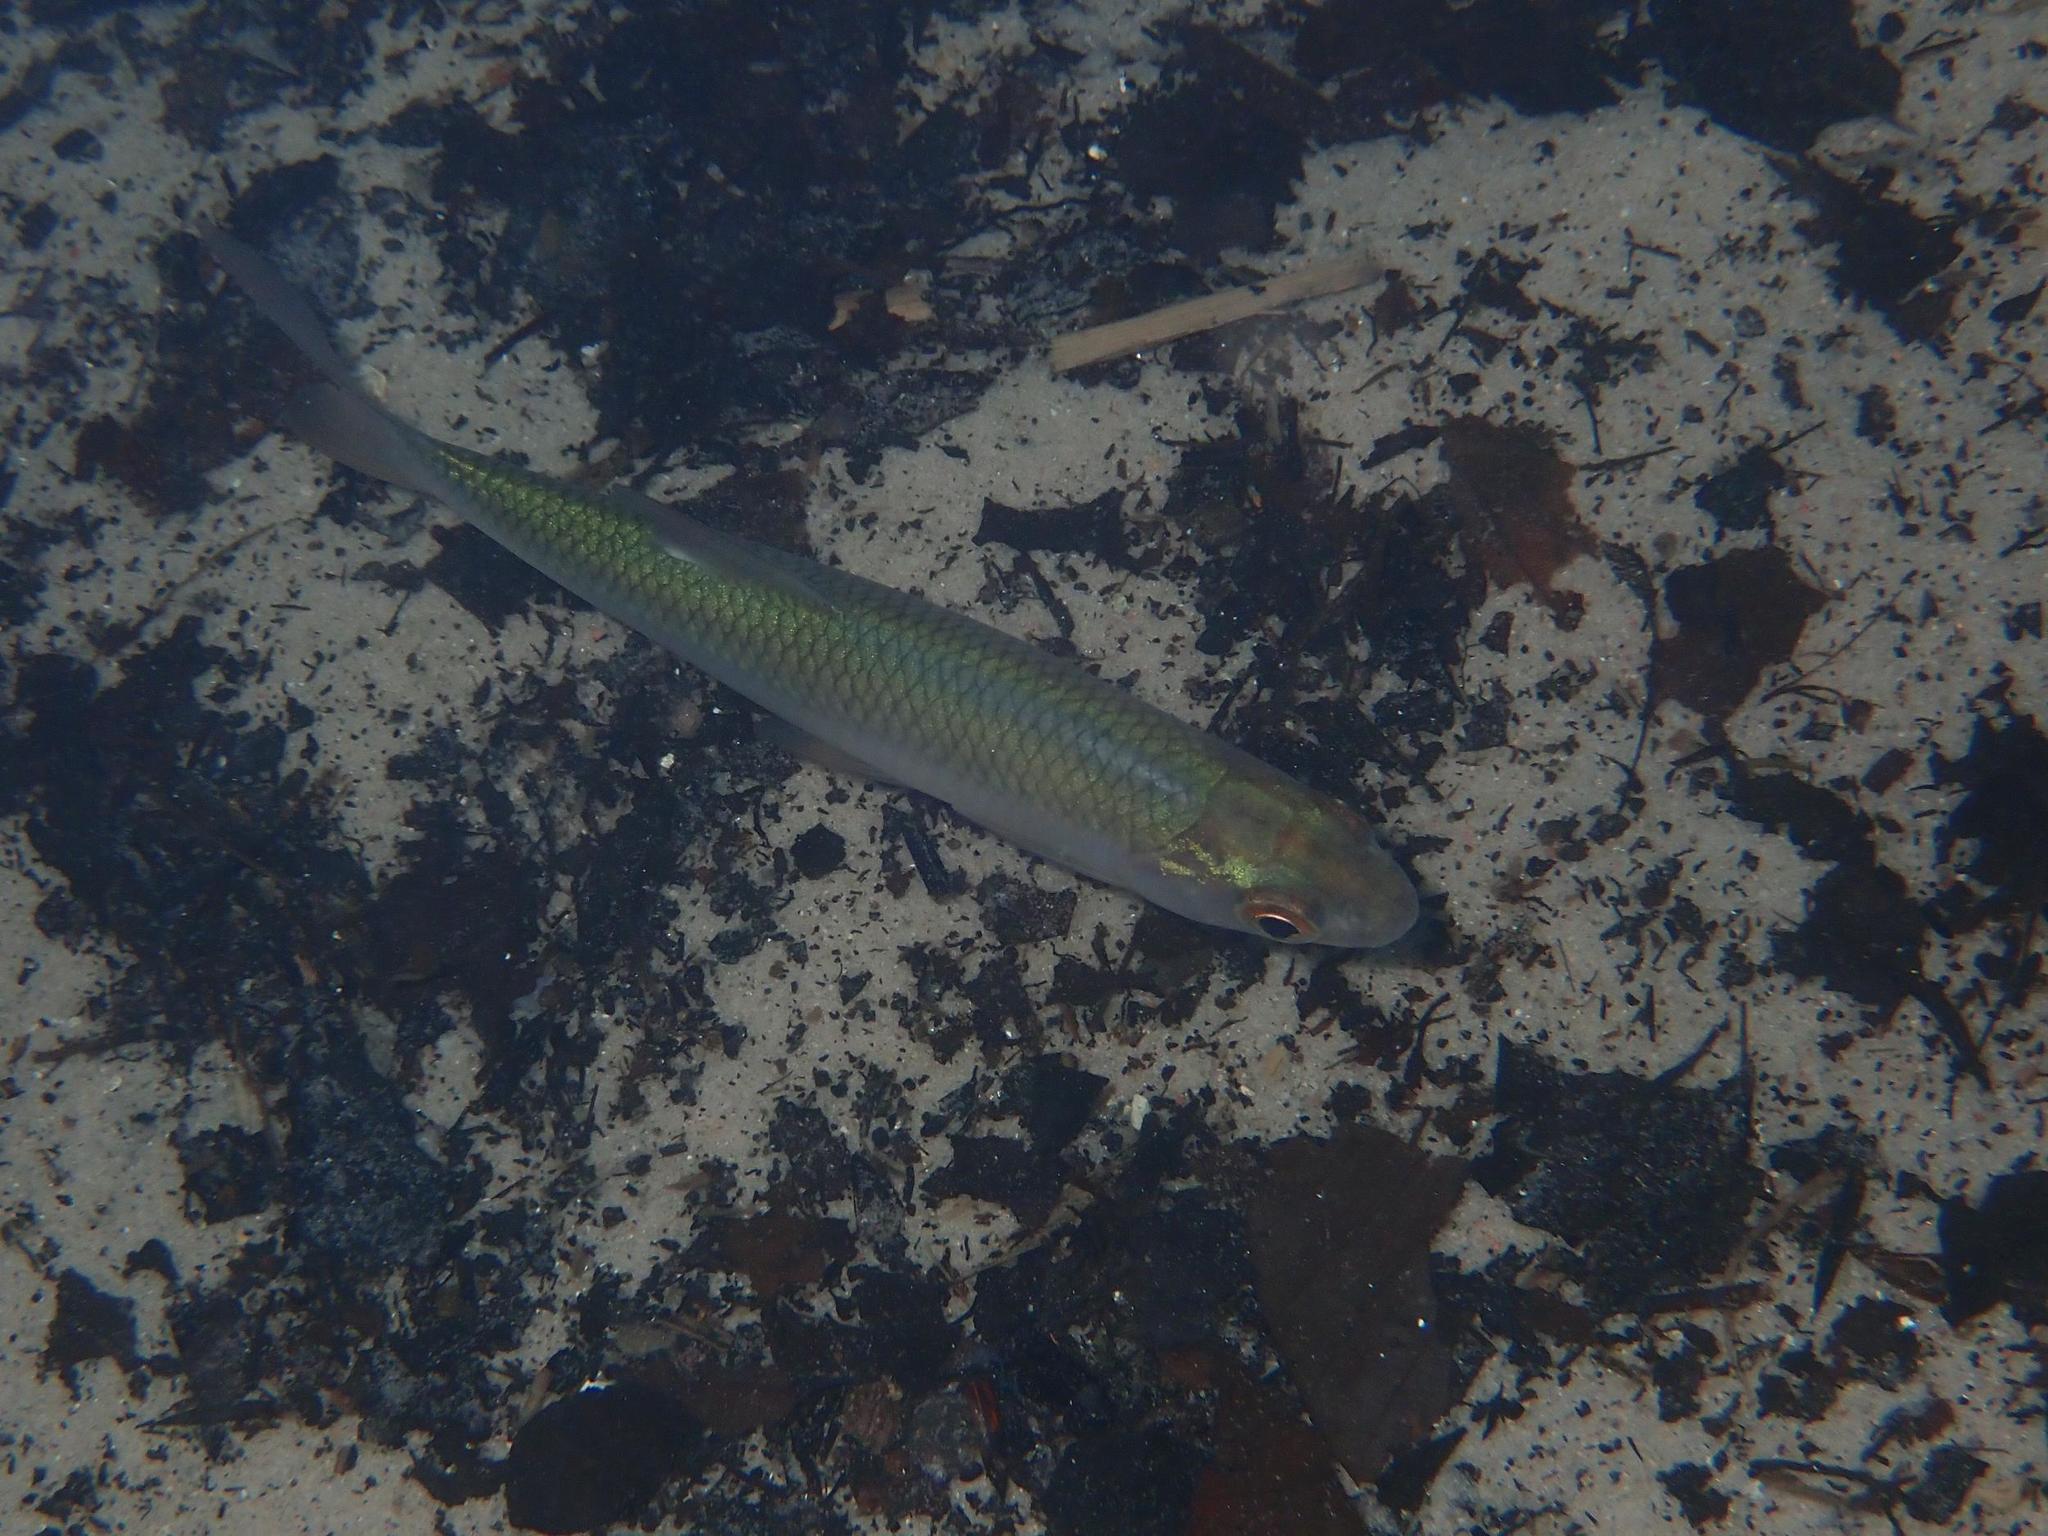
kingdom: Animalia
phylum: Chordata
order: Cypriniformes
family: Cyprinidae
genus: Rutilus
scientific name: Rutilus rutilus
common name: Roach
